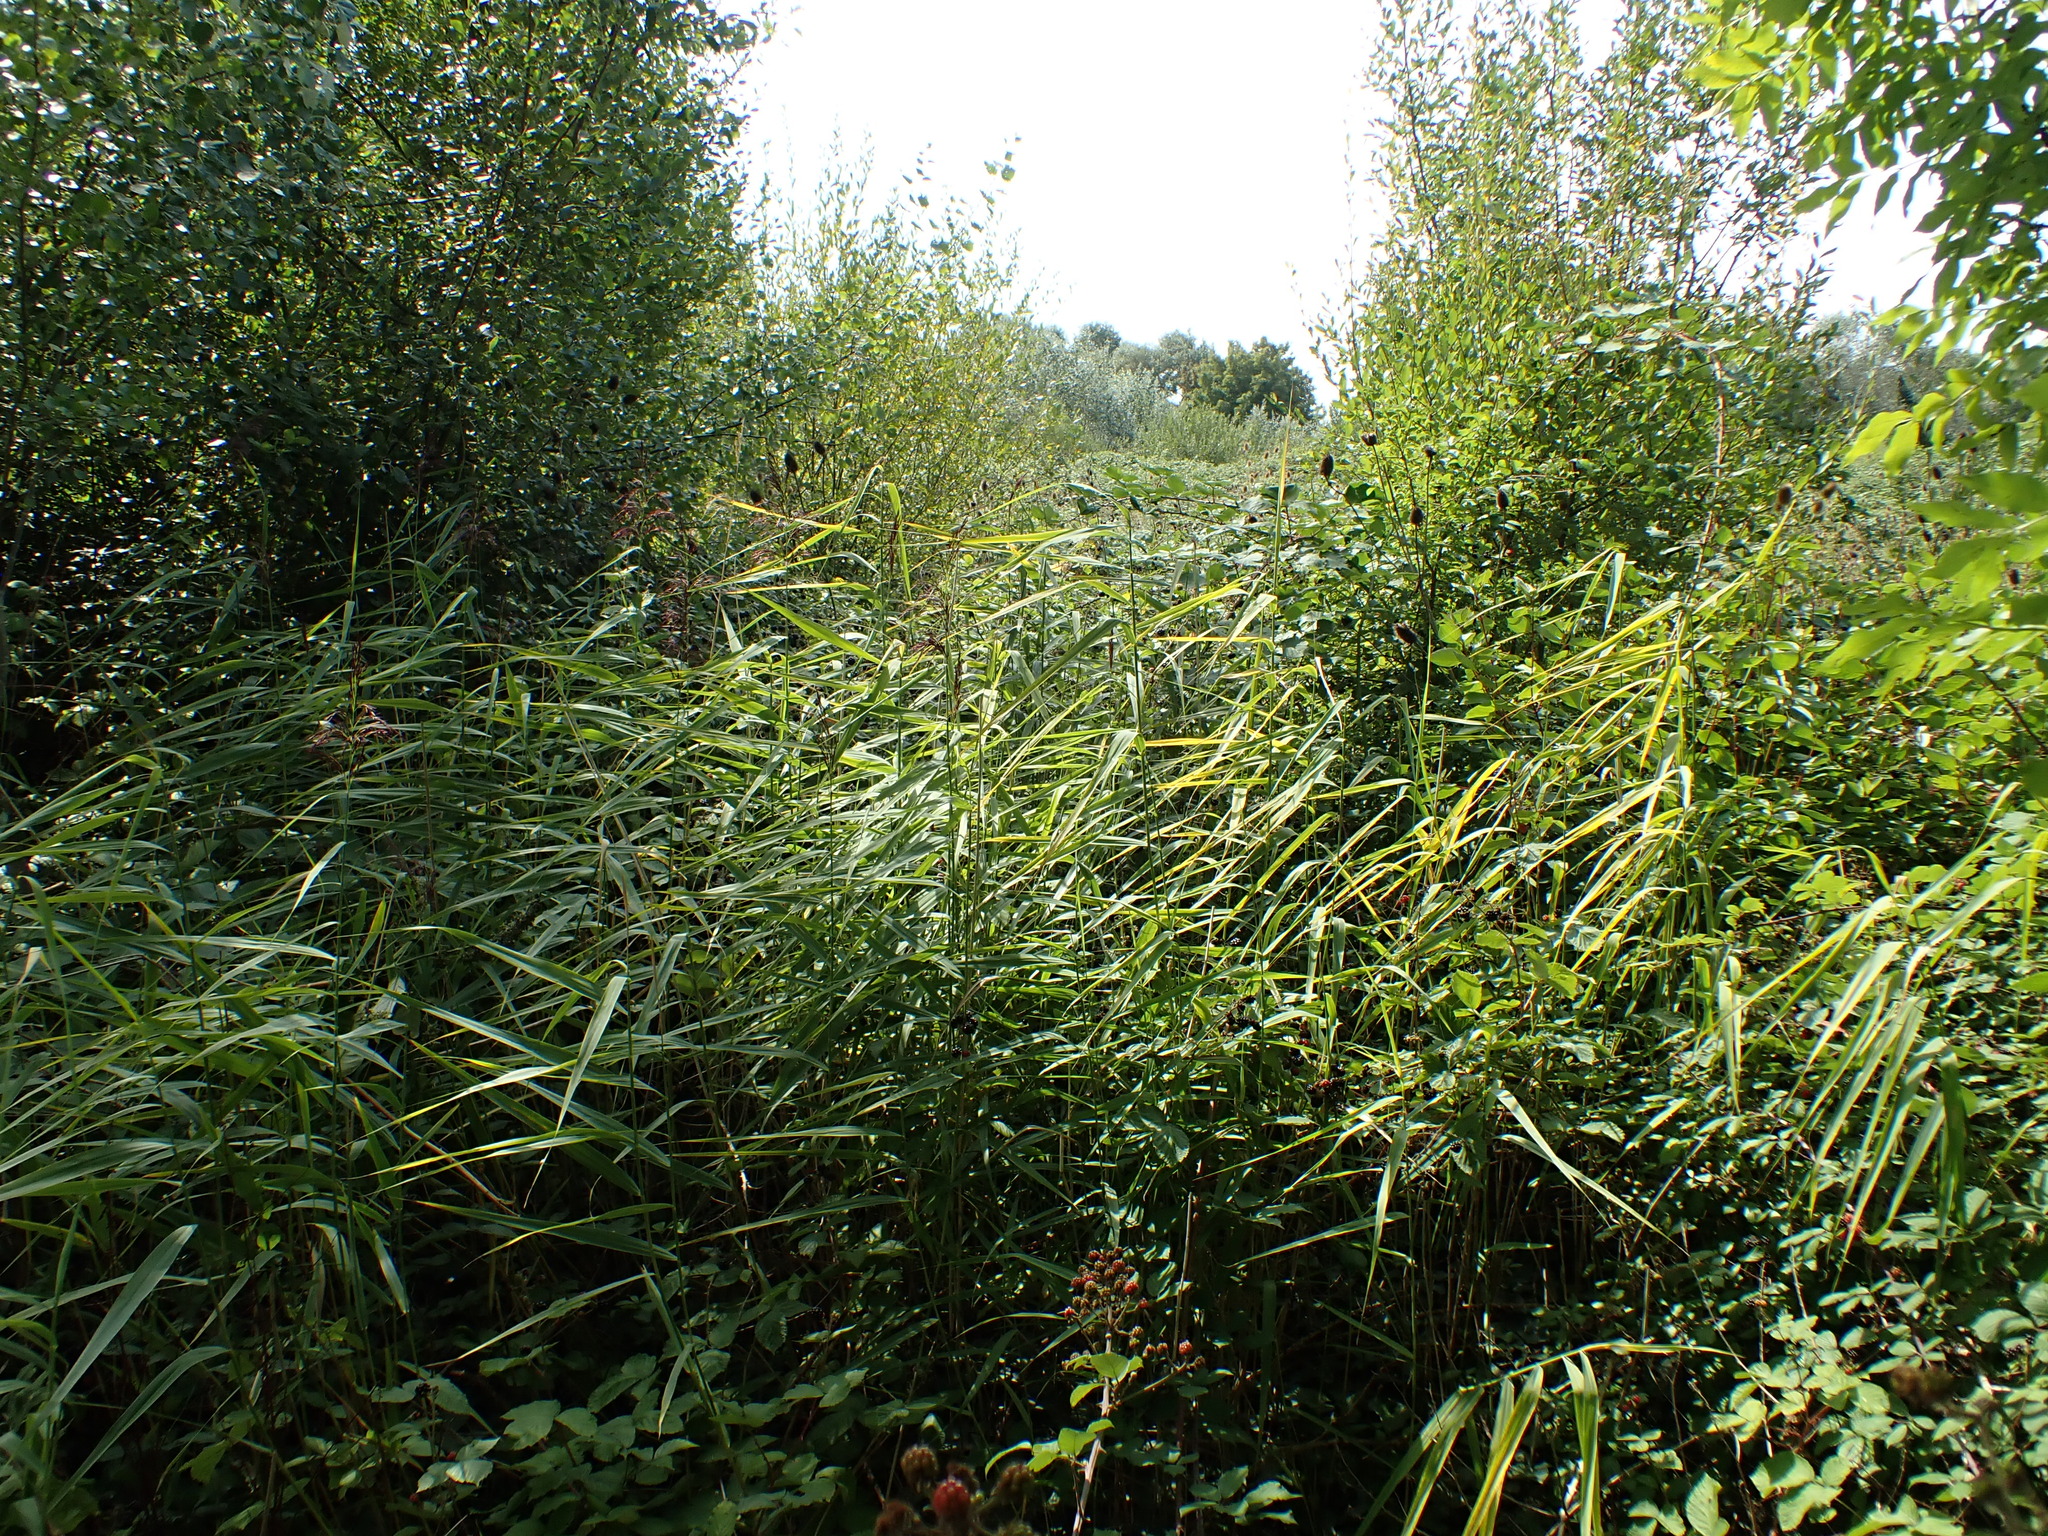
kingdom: Plantae
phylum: Tracheophyta
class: Liliopsida
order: Poales
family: Poaceae
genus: Phragmites
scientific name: Phragmites australis
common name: Common reed
